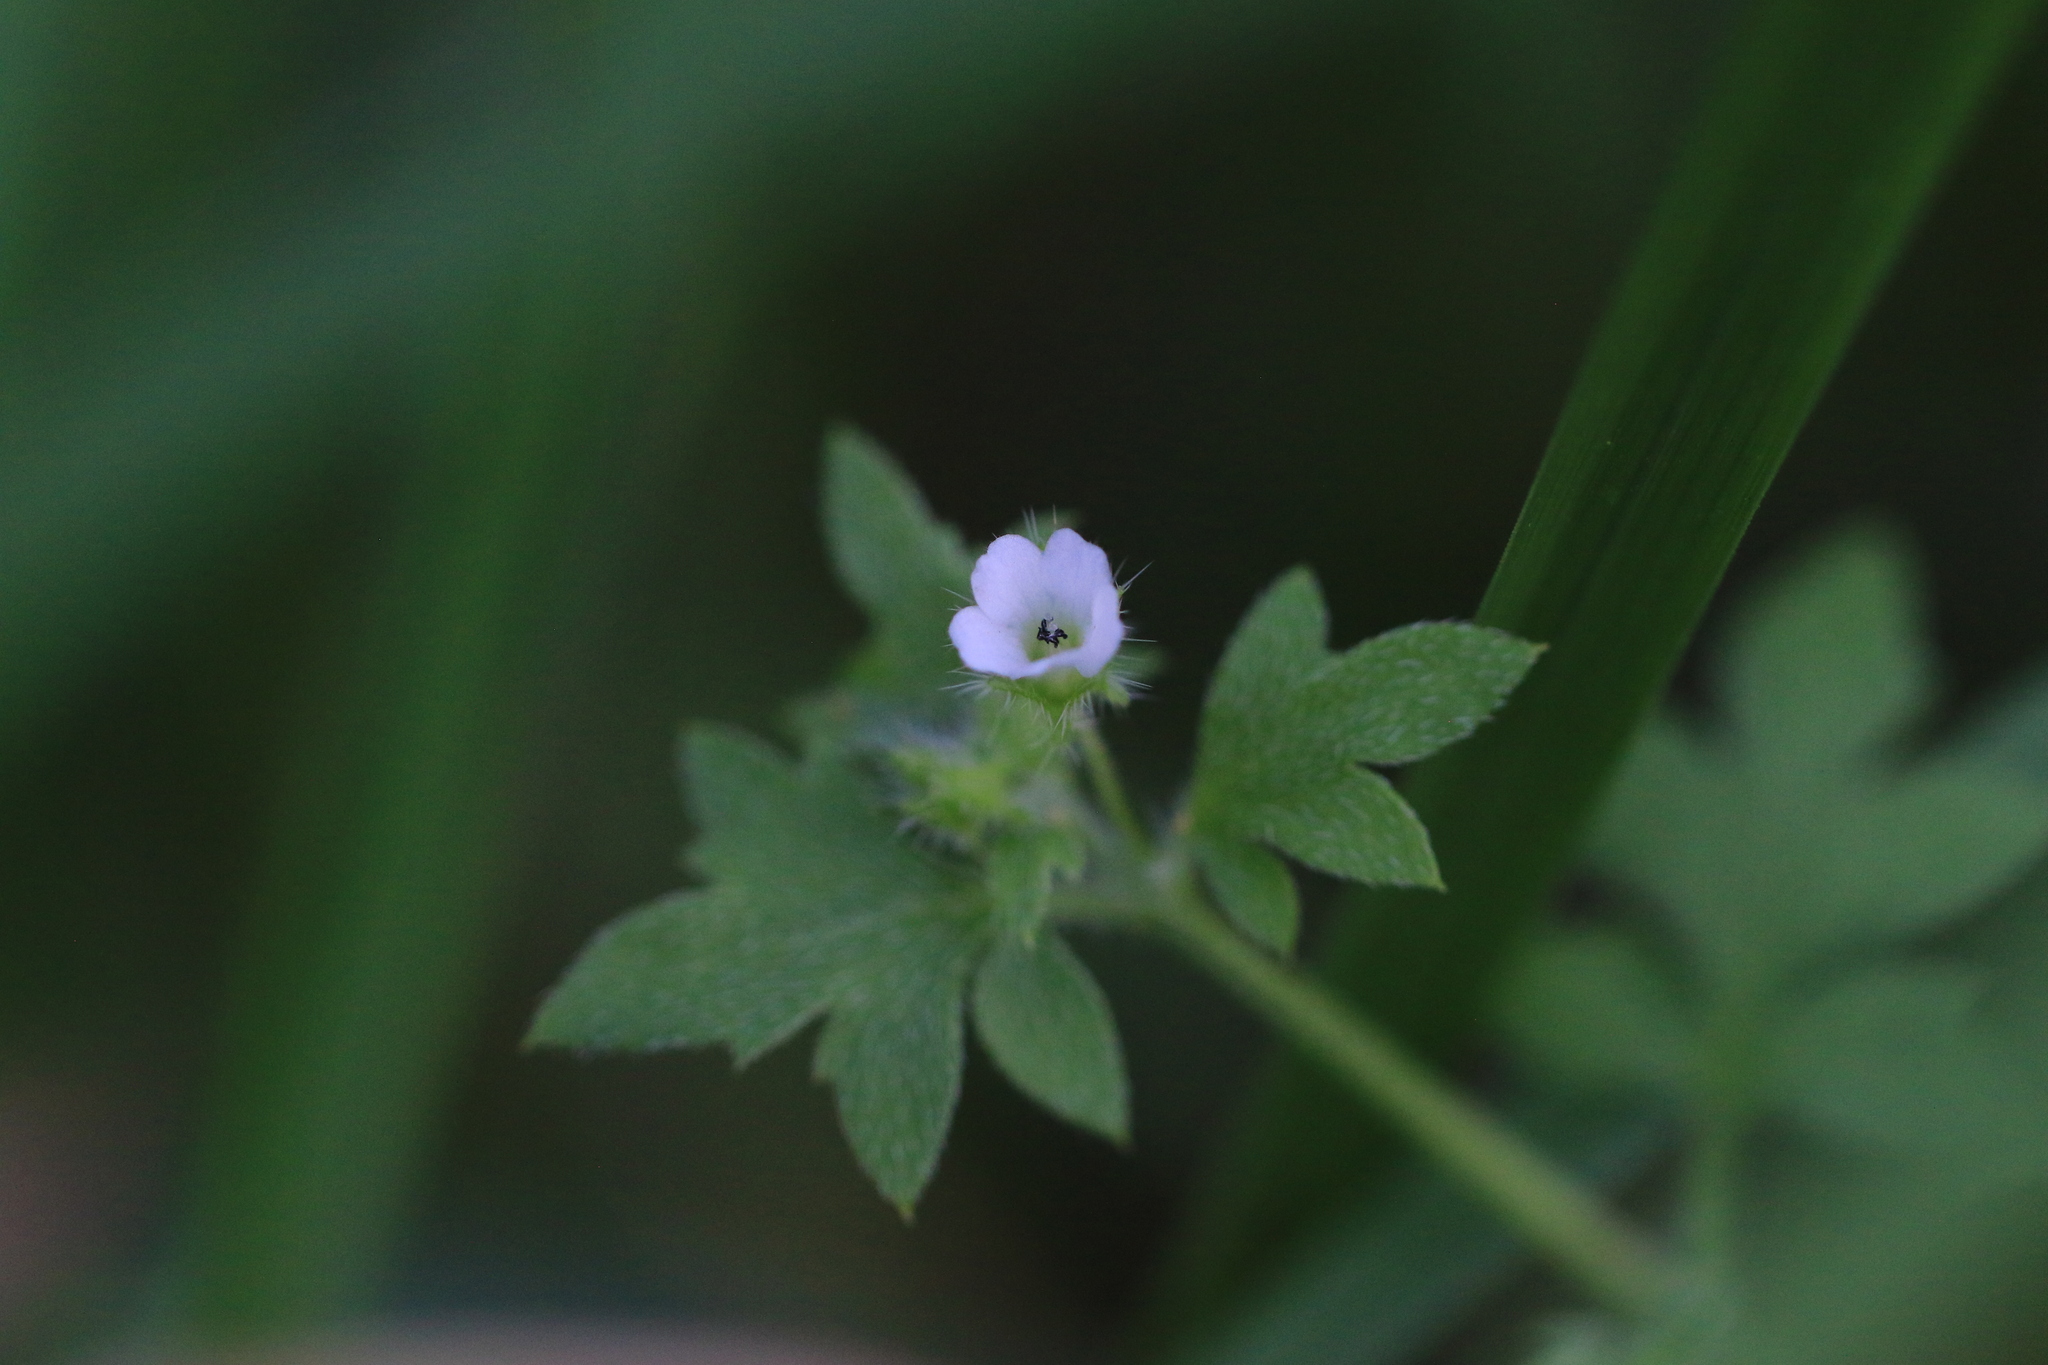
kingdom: Plantae
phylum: Tracheophyta
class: Magnoliopsida
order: Boraginales
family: Hydrophyllaceae
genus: Nemophila
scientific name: Nemophila parviflora
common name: Small-flowered baby-blue-eyes
